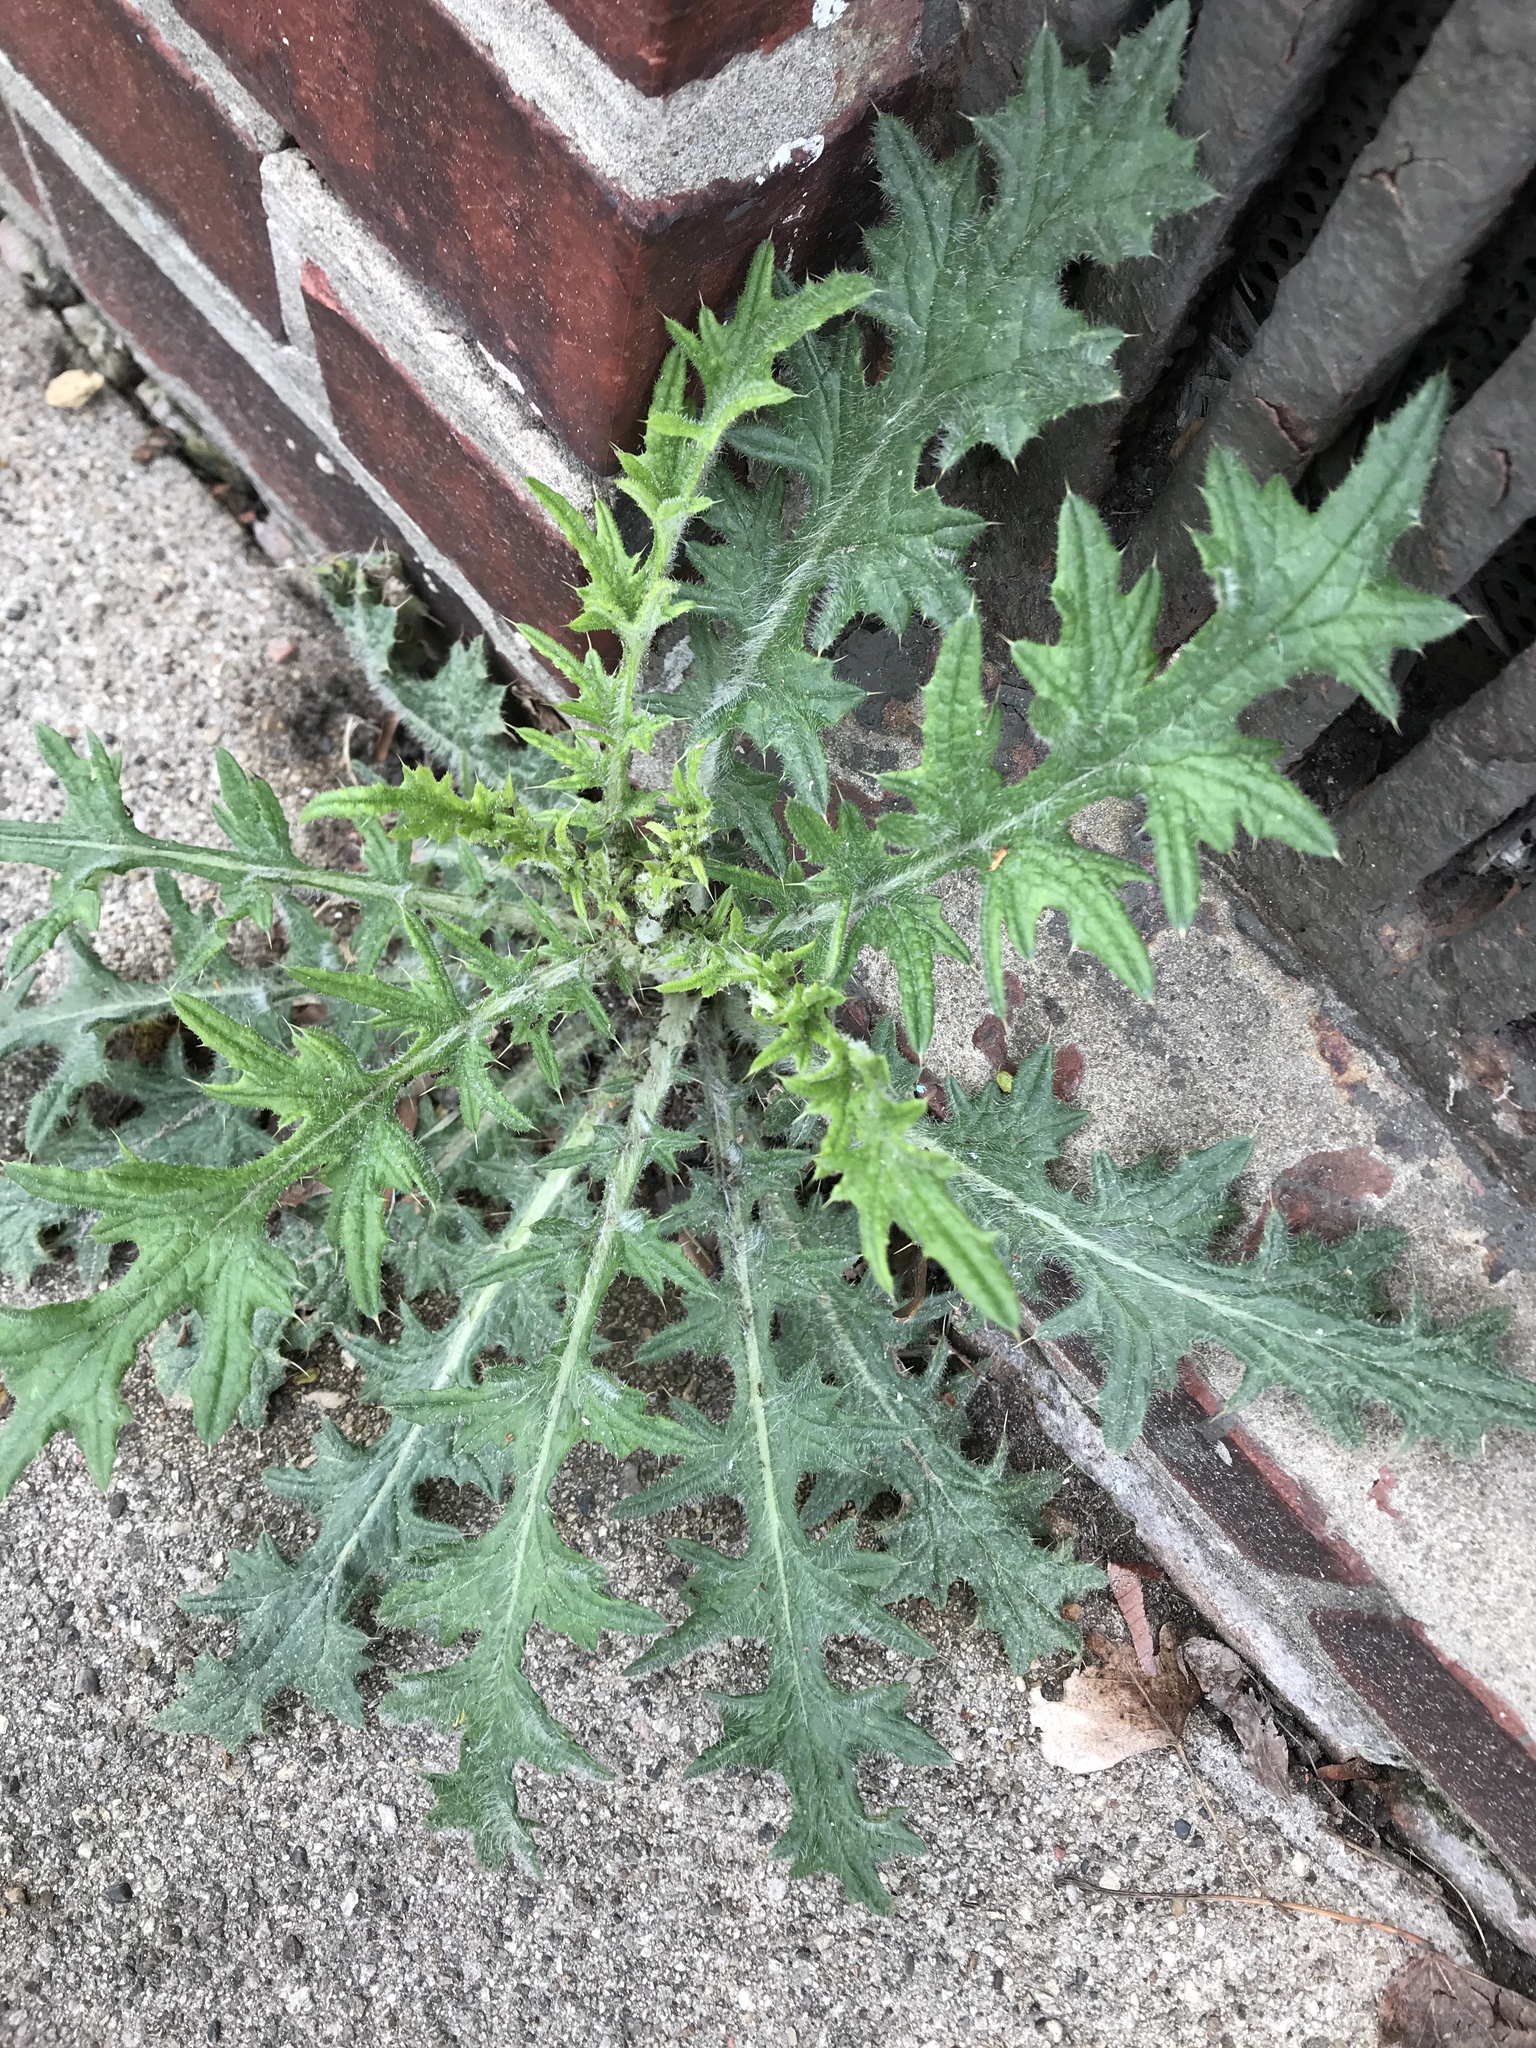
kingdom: Plantae
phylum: Tracheophyta
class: Magnoliopsida
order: Asterales
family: Asteraceae
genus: Cirsium
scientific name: Cirsium vulgare
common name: Bull thistle
